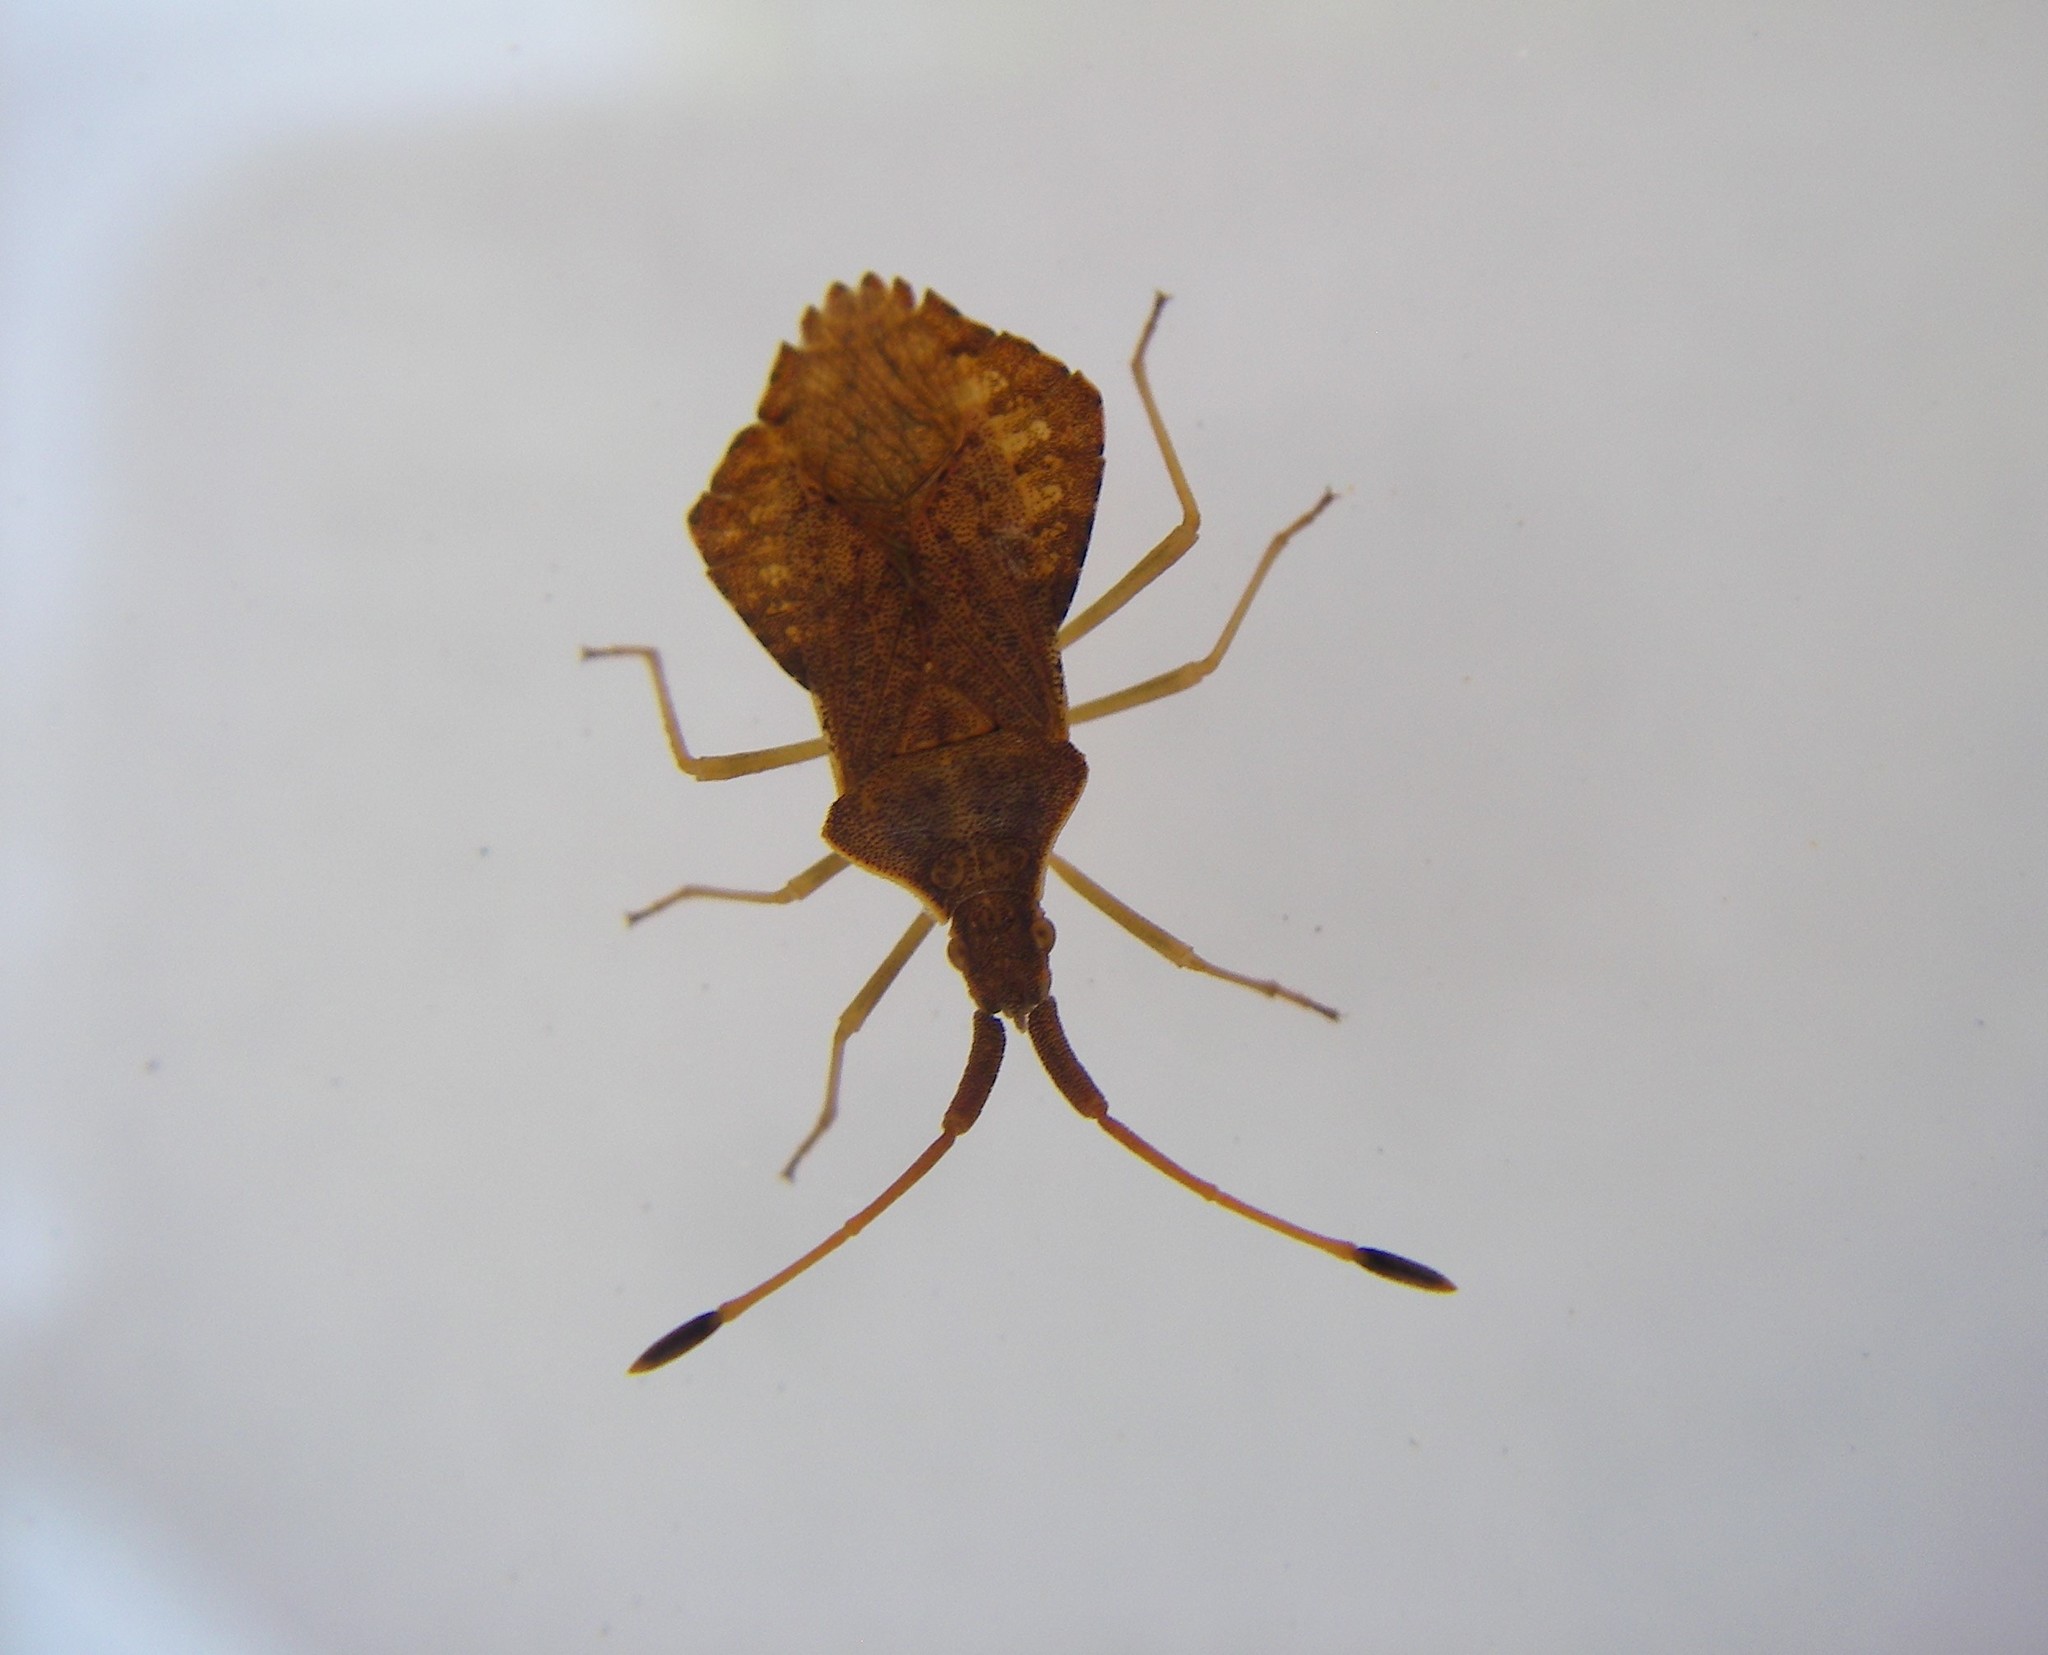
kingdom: Animalia
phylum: Arthropoda
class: Insecta
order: Hemiptera
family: Coreidae
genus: Syromastus
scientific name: Syromastus rhombeus
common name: Rhombic leatherbug
